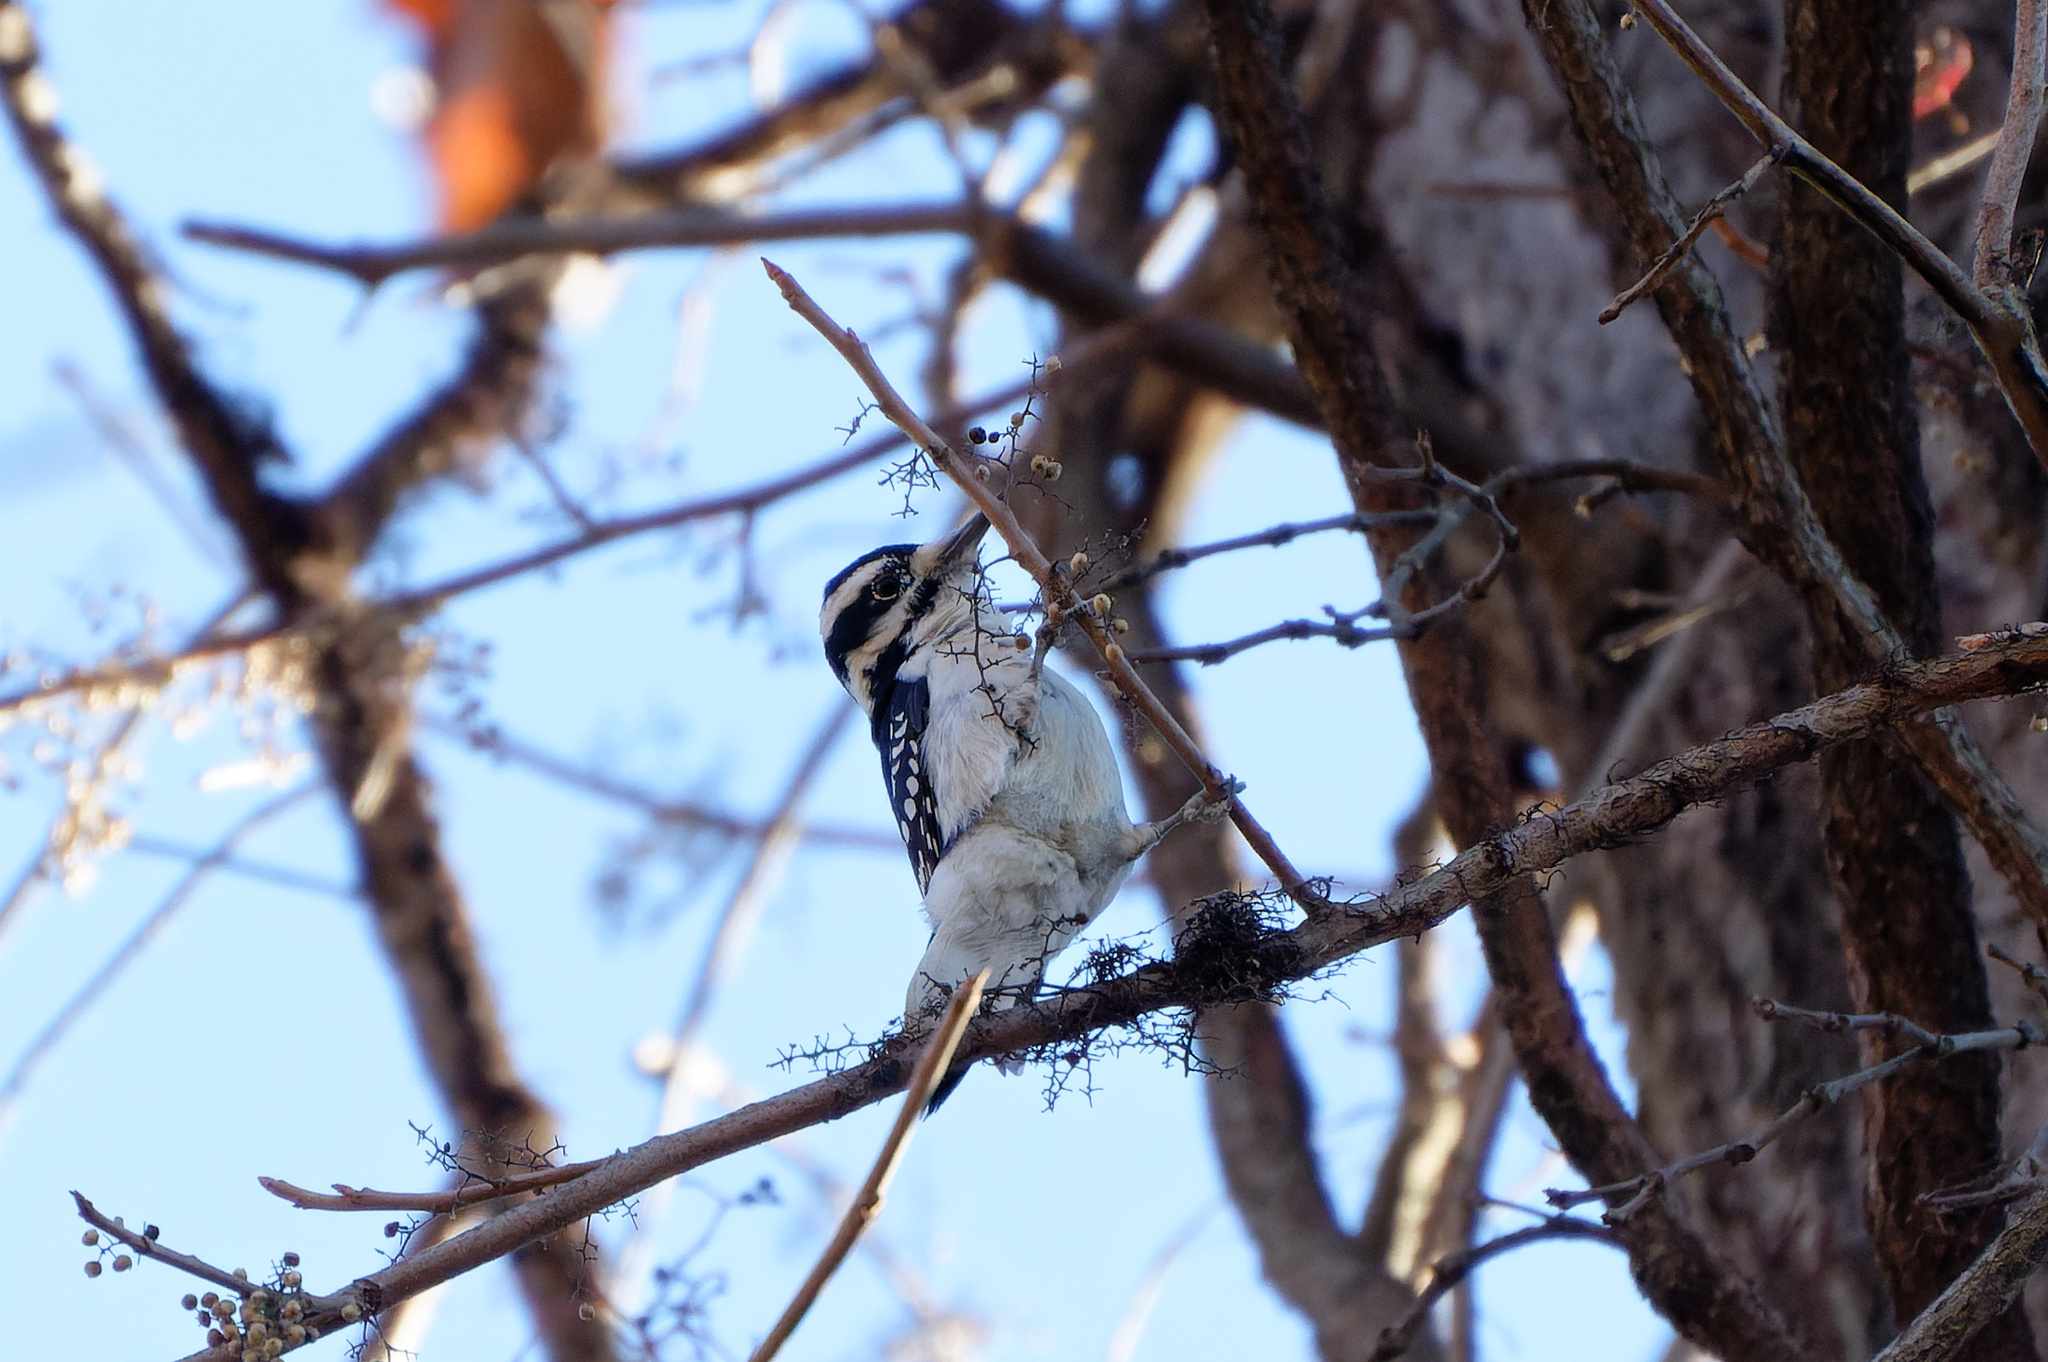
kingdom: Animalia
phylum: Chordata
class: Aves
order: Piciformes
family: Picidae
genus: Leuconotopicus
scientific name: Leuconotopicus villosus
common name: Hairy woodpecker
